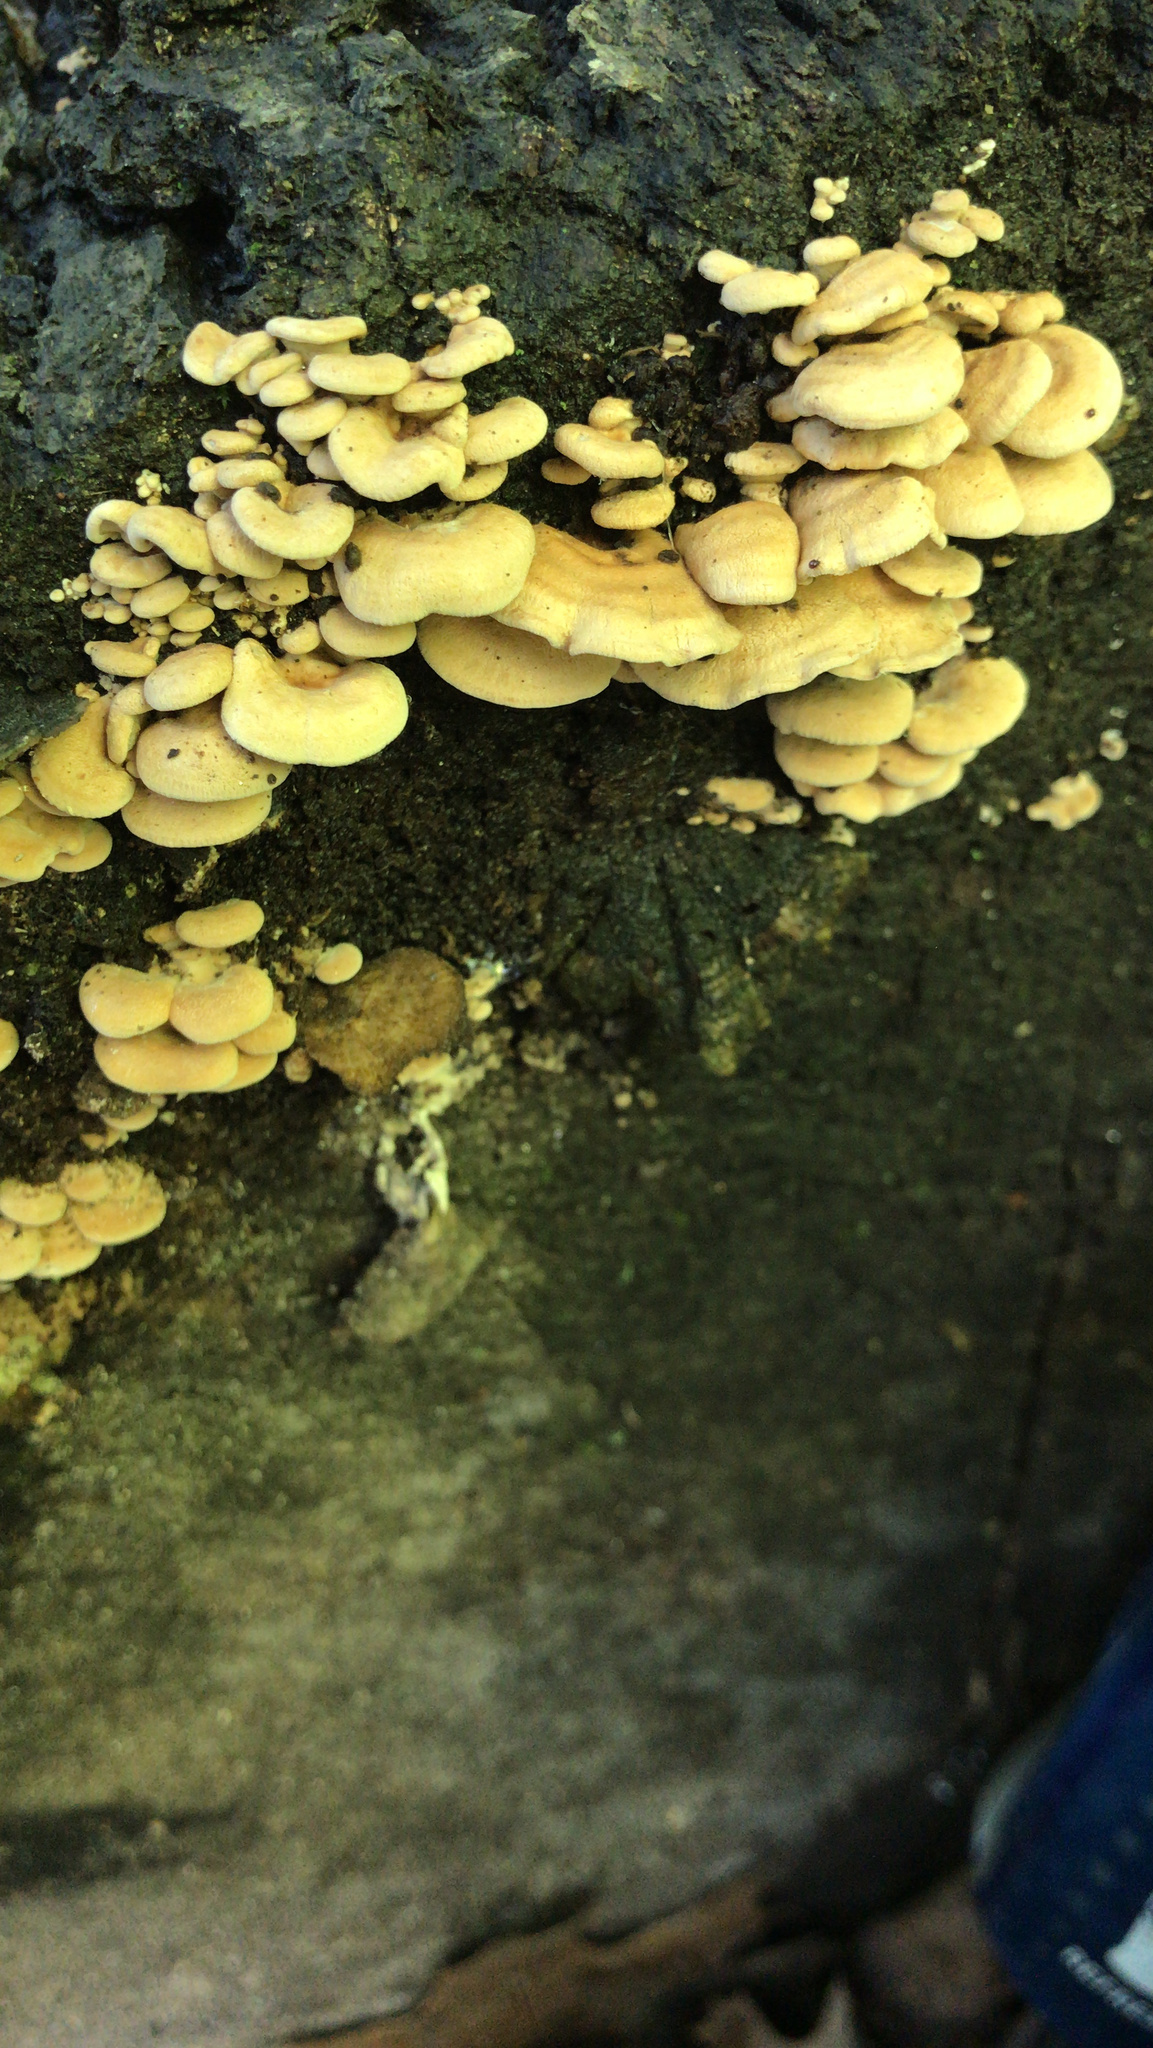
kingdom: Fungi
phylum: Basidiomycota
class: Agaricomycetes
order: Agaricales
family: Mycenaceae
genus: Panellus
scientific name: Panellus stipticus
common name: Bitter oysterling
